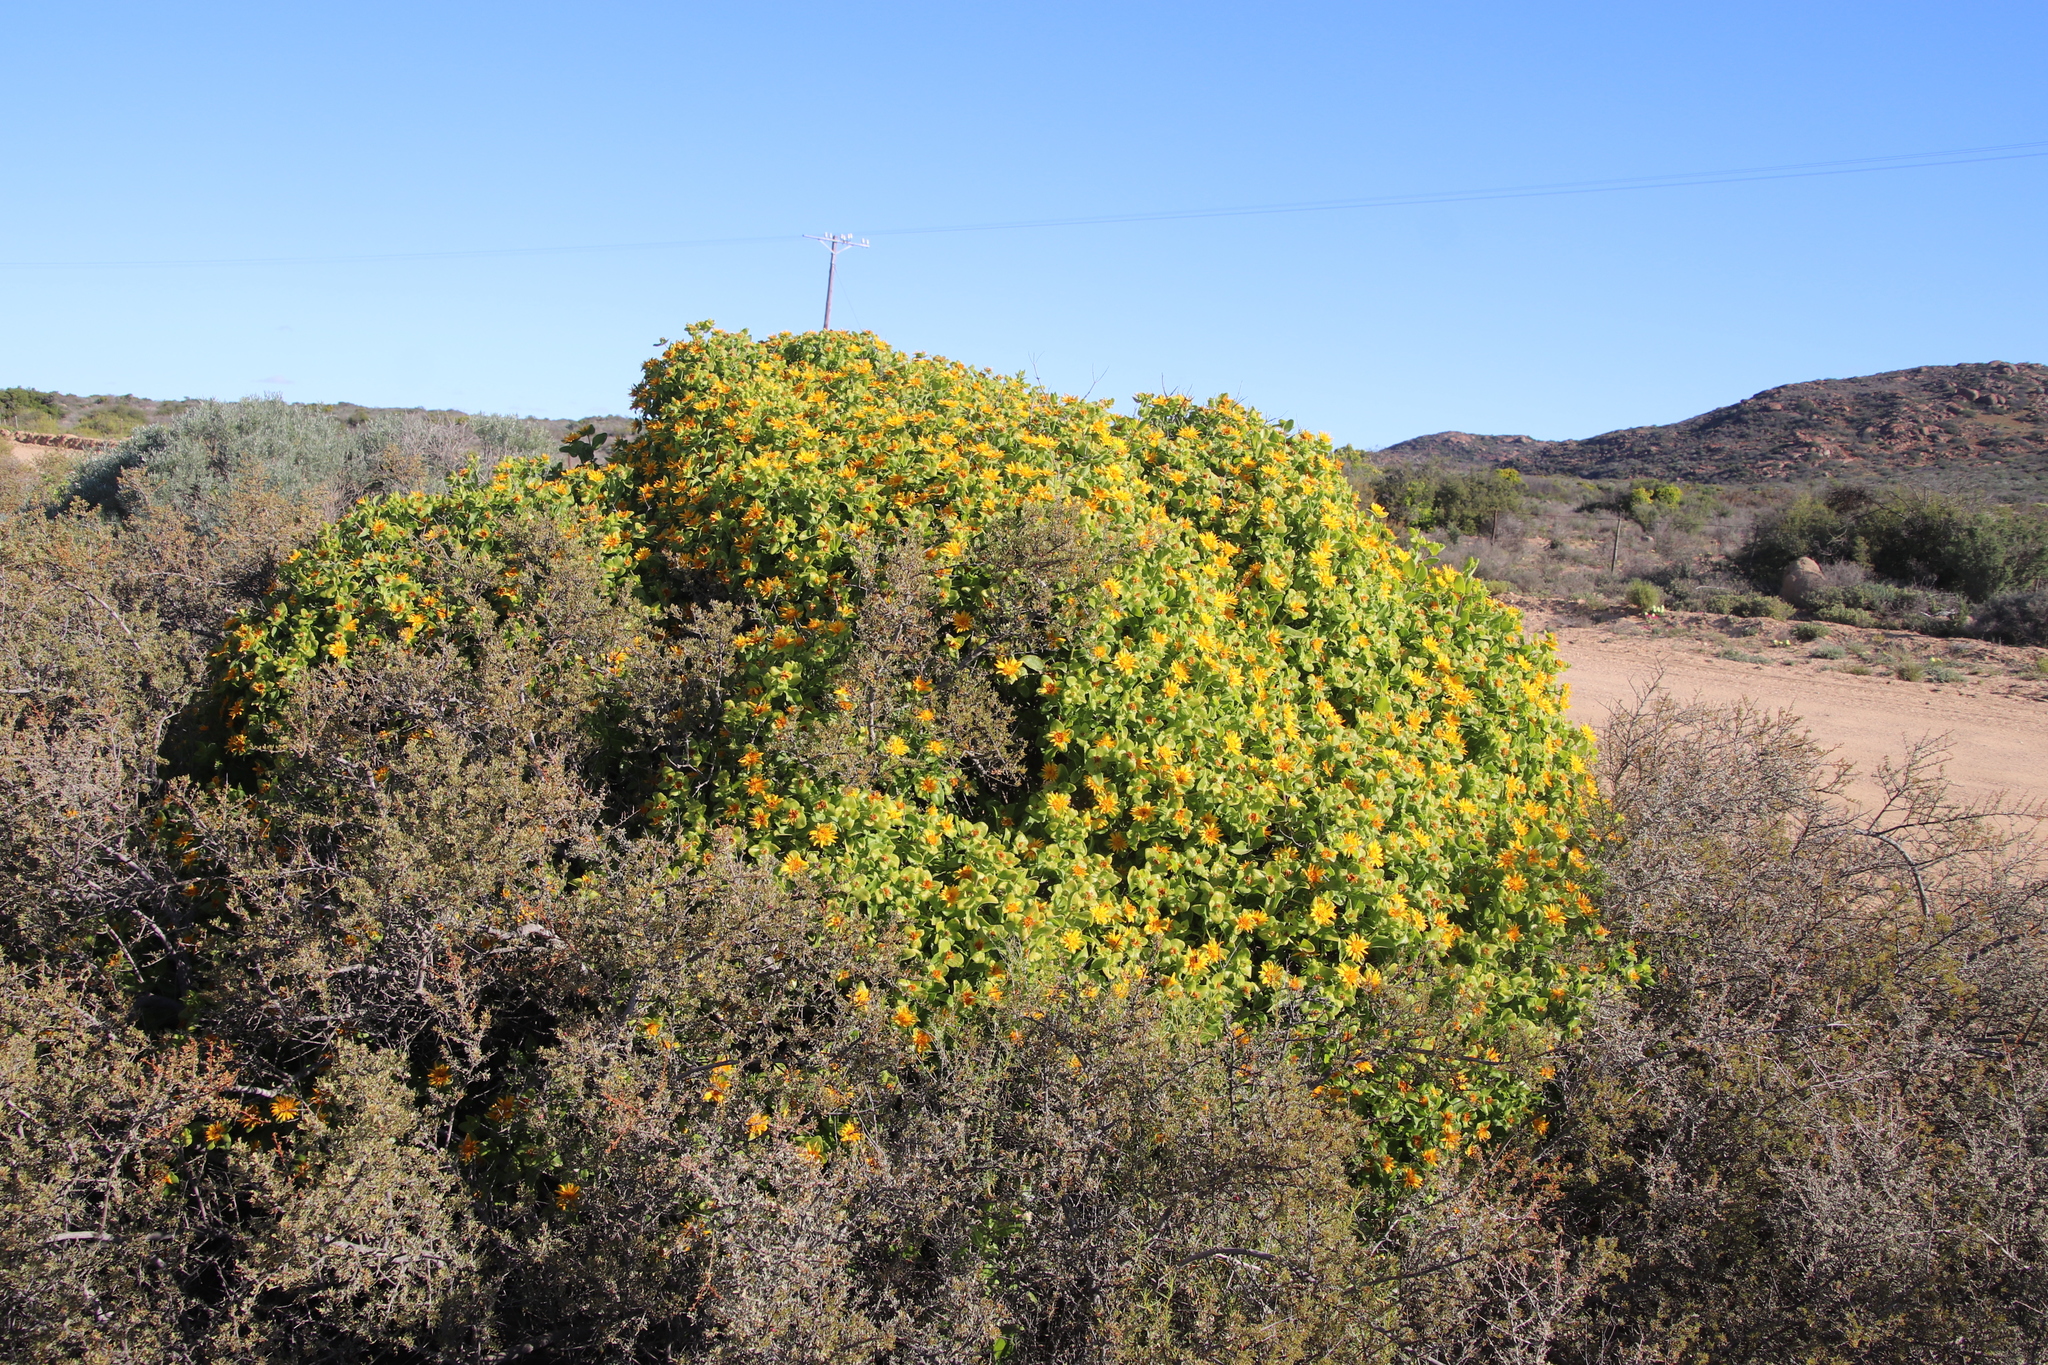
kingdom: Plantae
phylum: Tracheophyta
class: Magnoliopsida
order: Asterales
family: Asteraceae
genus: Didelta
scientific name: Didelta spinosa
